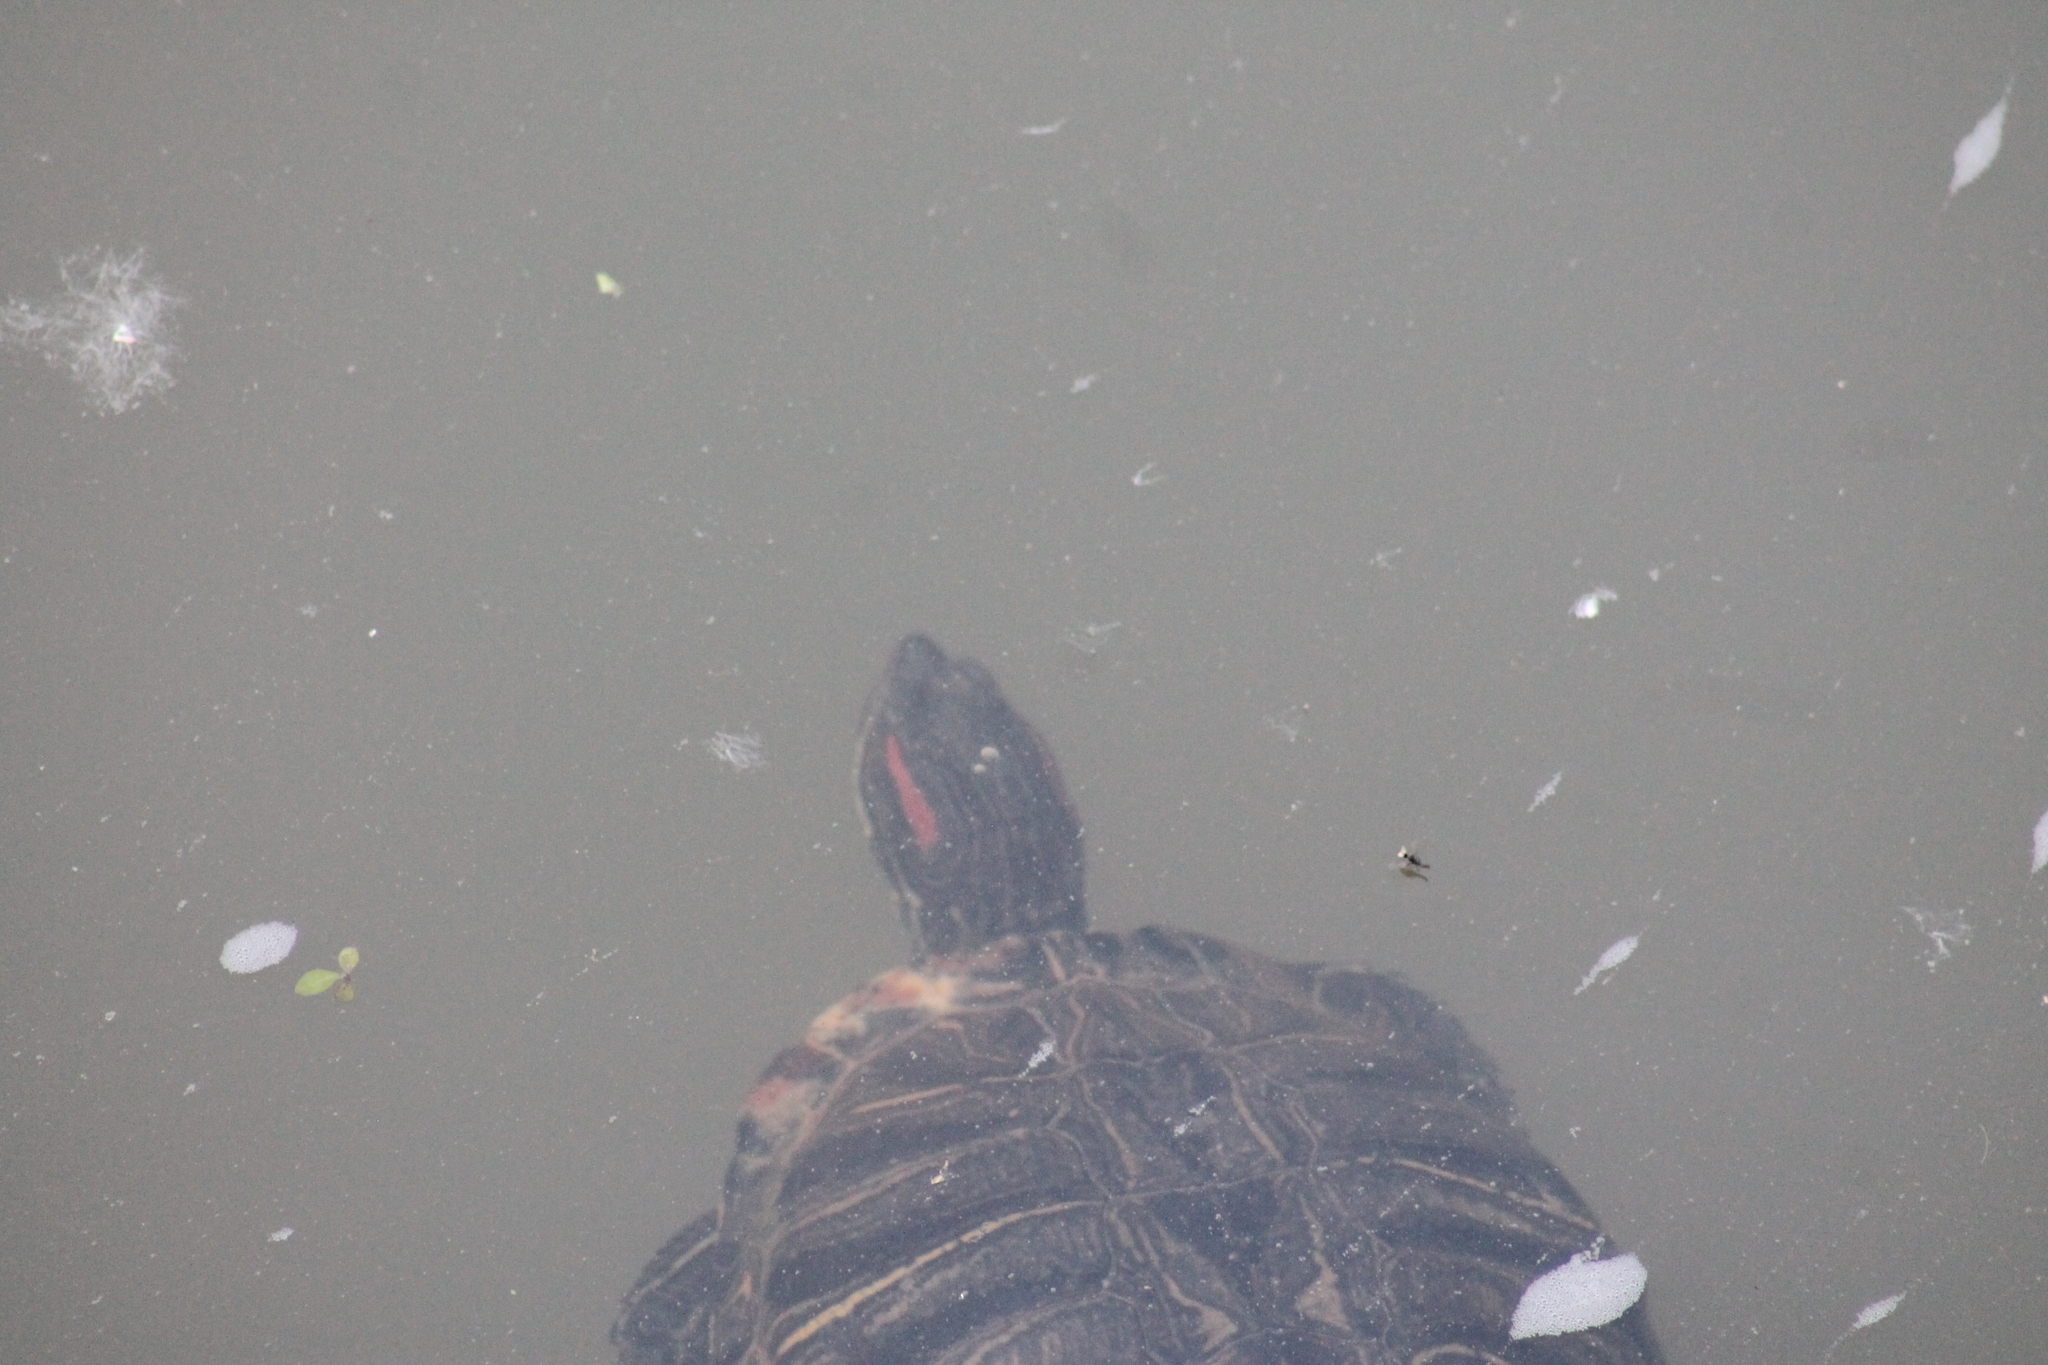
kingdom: Animalia
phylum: Chordata
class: Testudines
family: Emydidae
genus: Trachemys
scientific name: Trachemys scripta
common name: Slider
